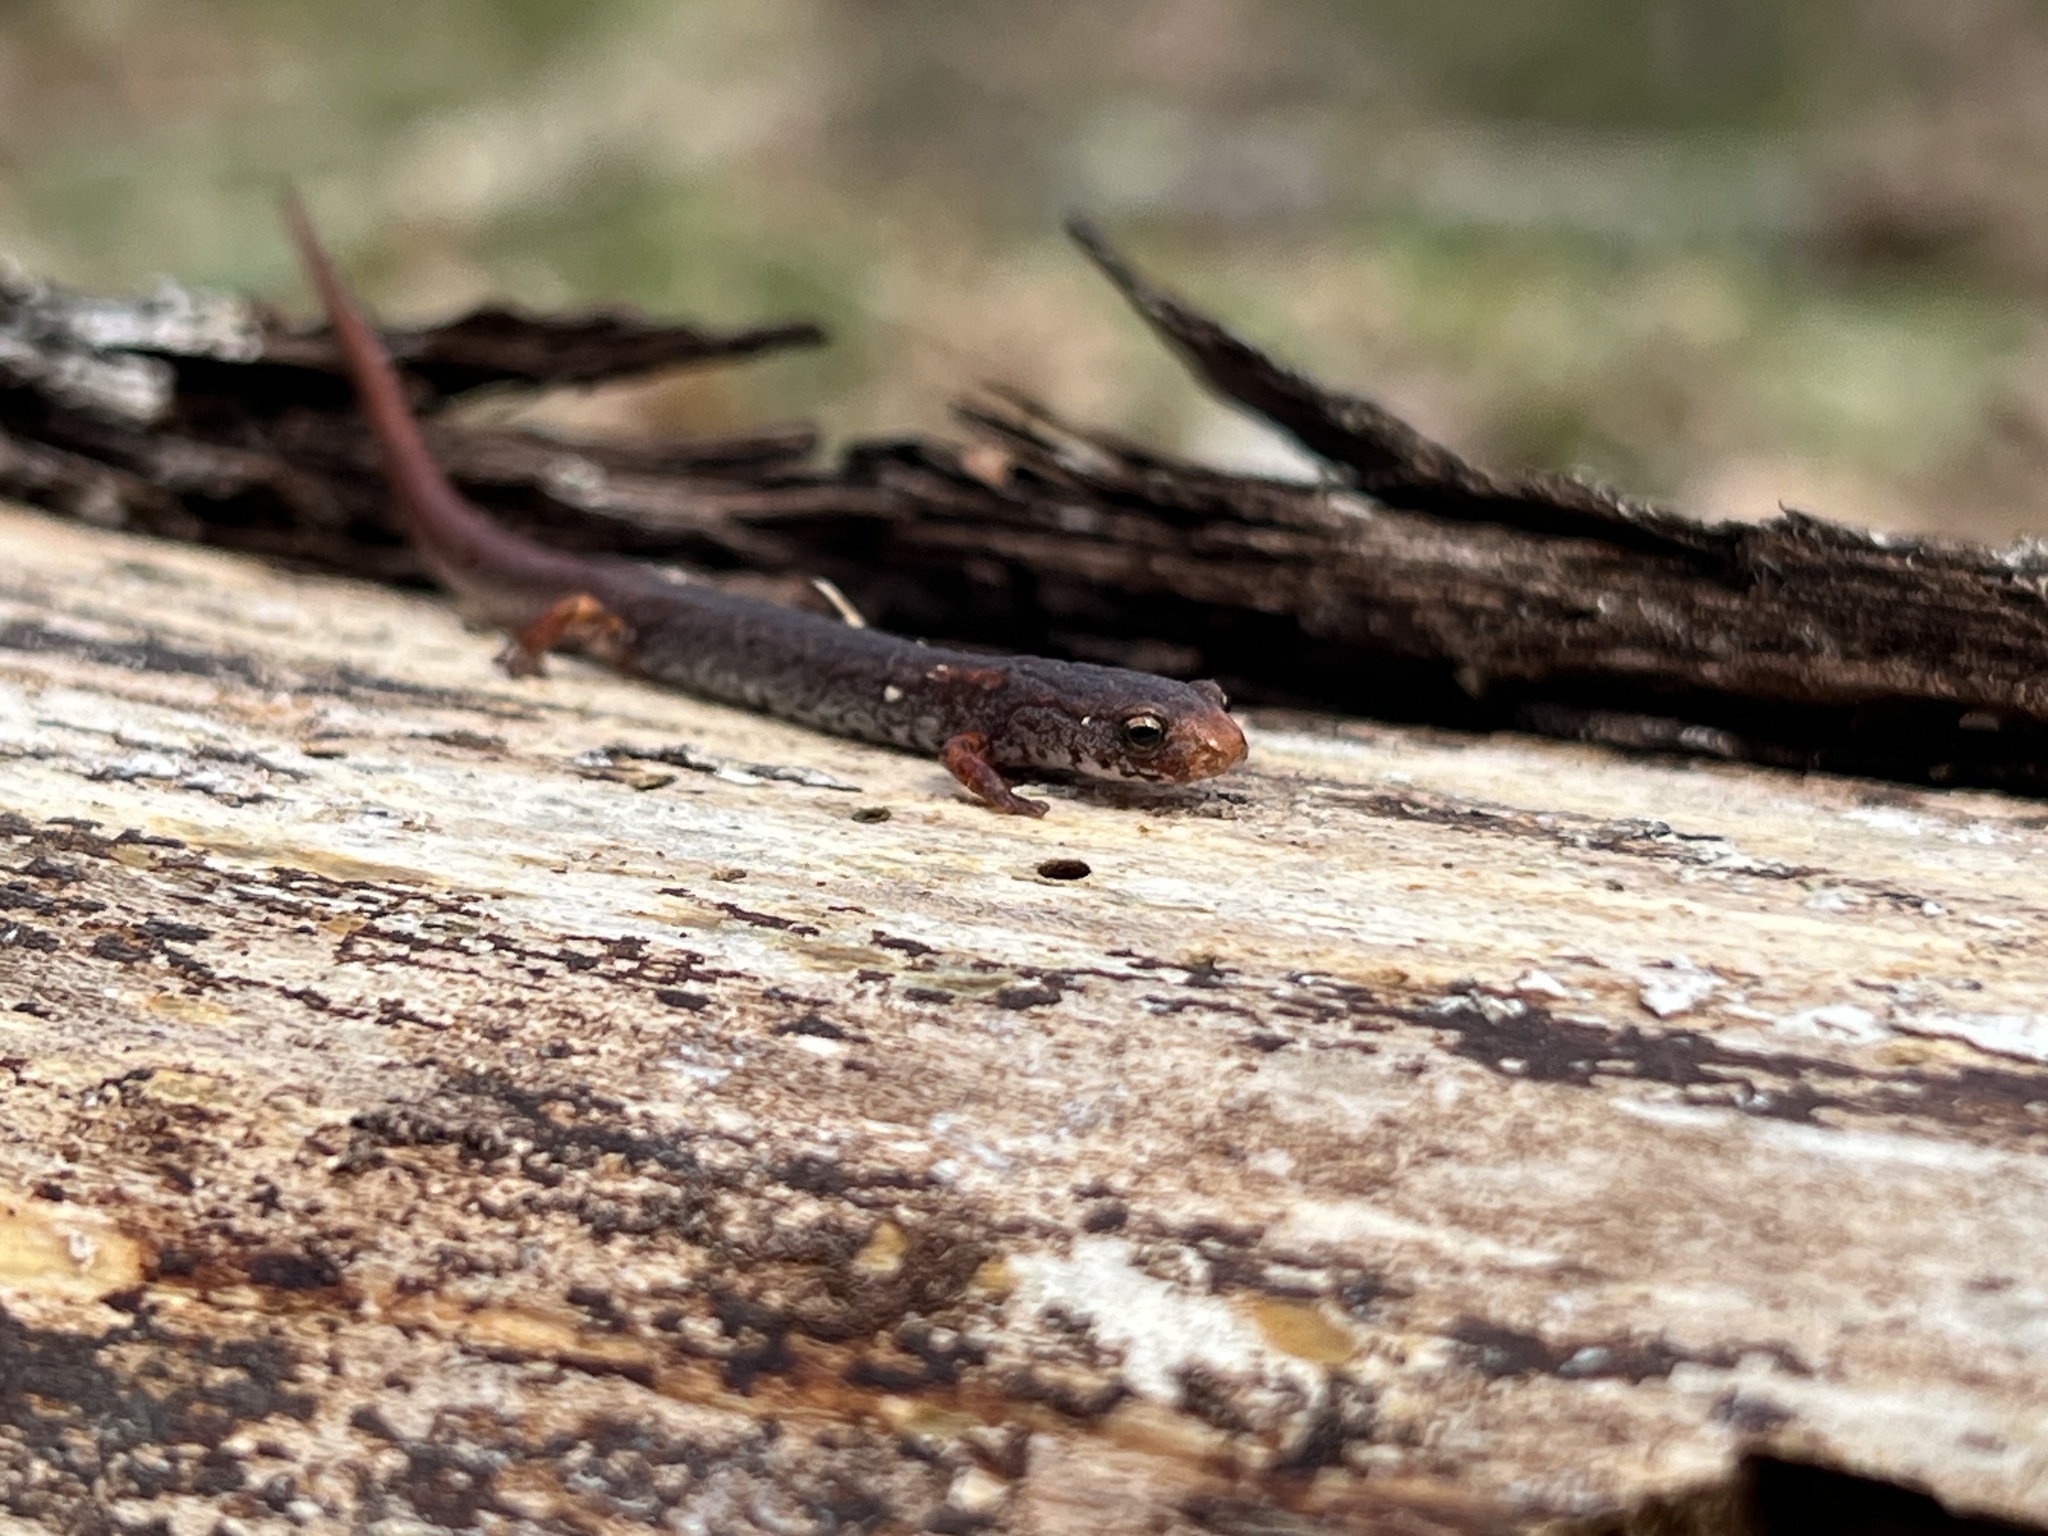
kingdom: Animalia
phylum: Chordata
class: Amphibia
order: Caudata
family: Plethodontidae
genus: Hemidactylium
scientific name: Hemidactylium scutatum
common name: Four-toed salamander
